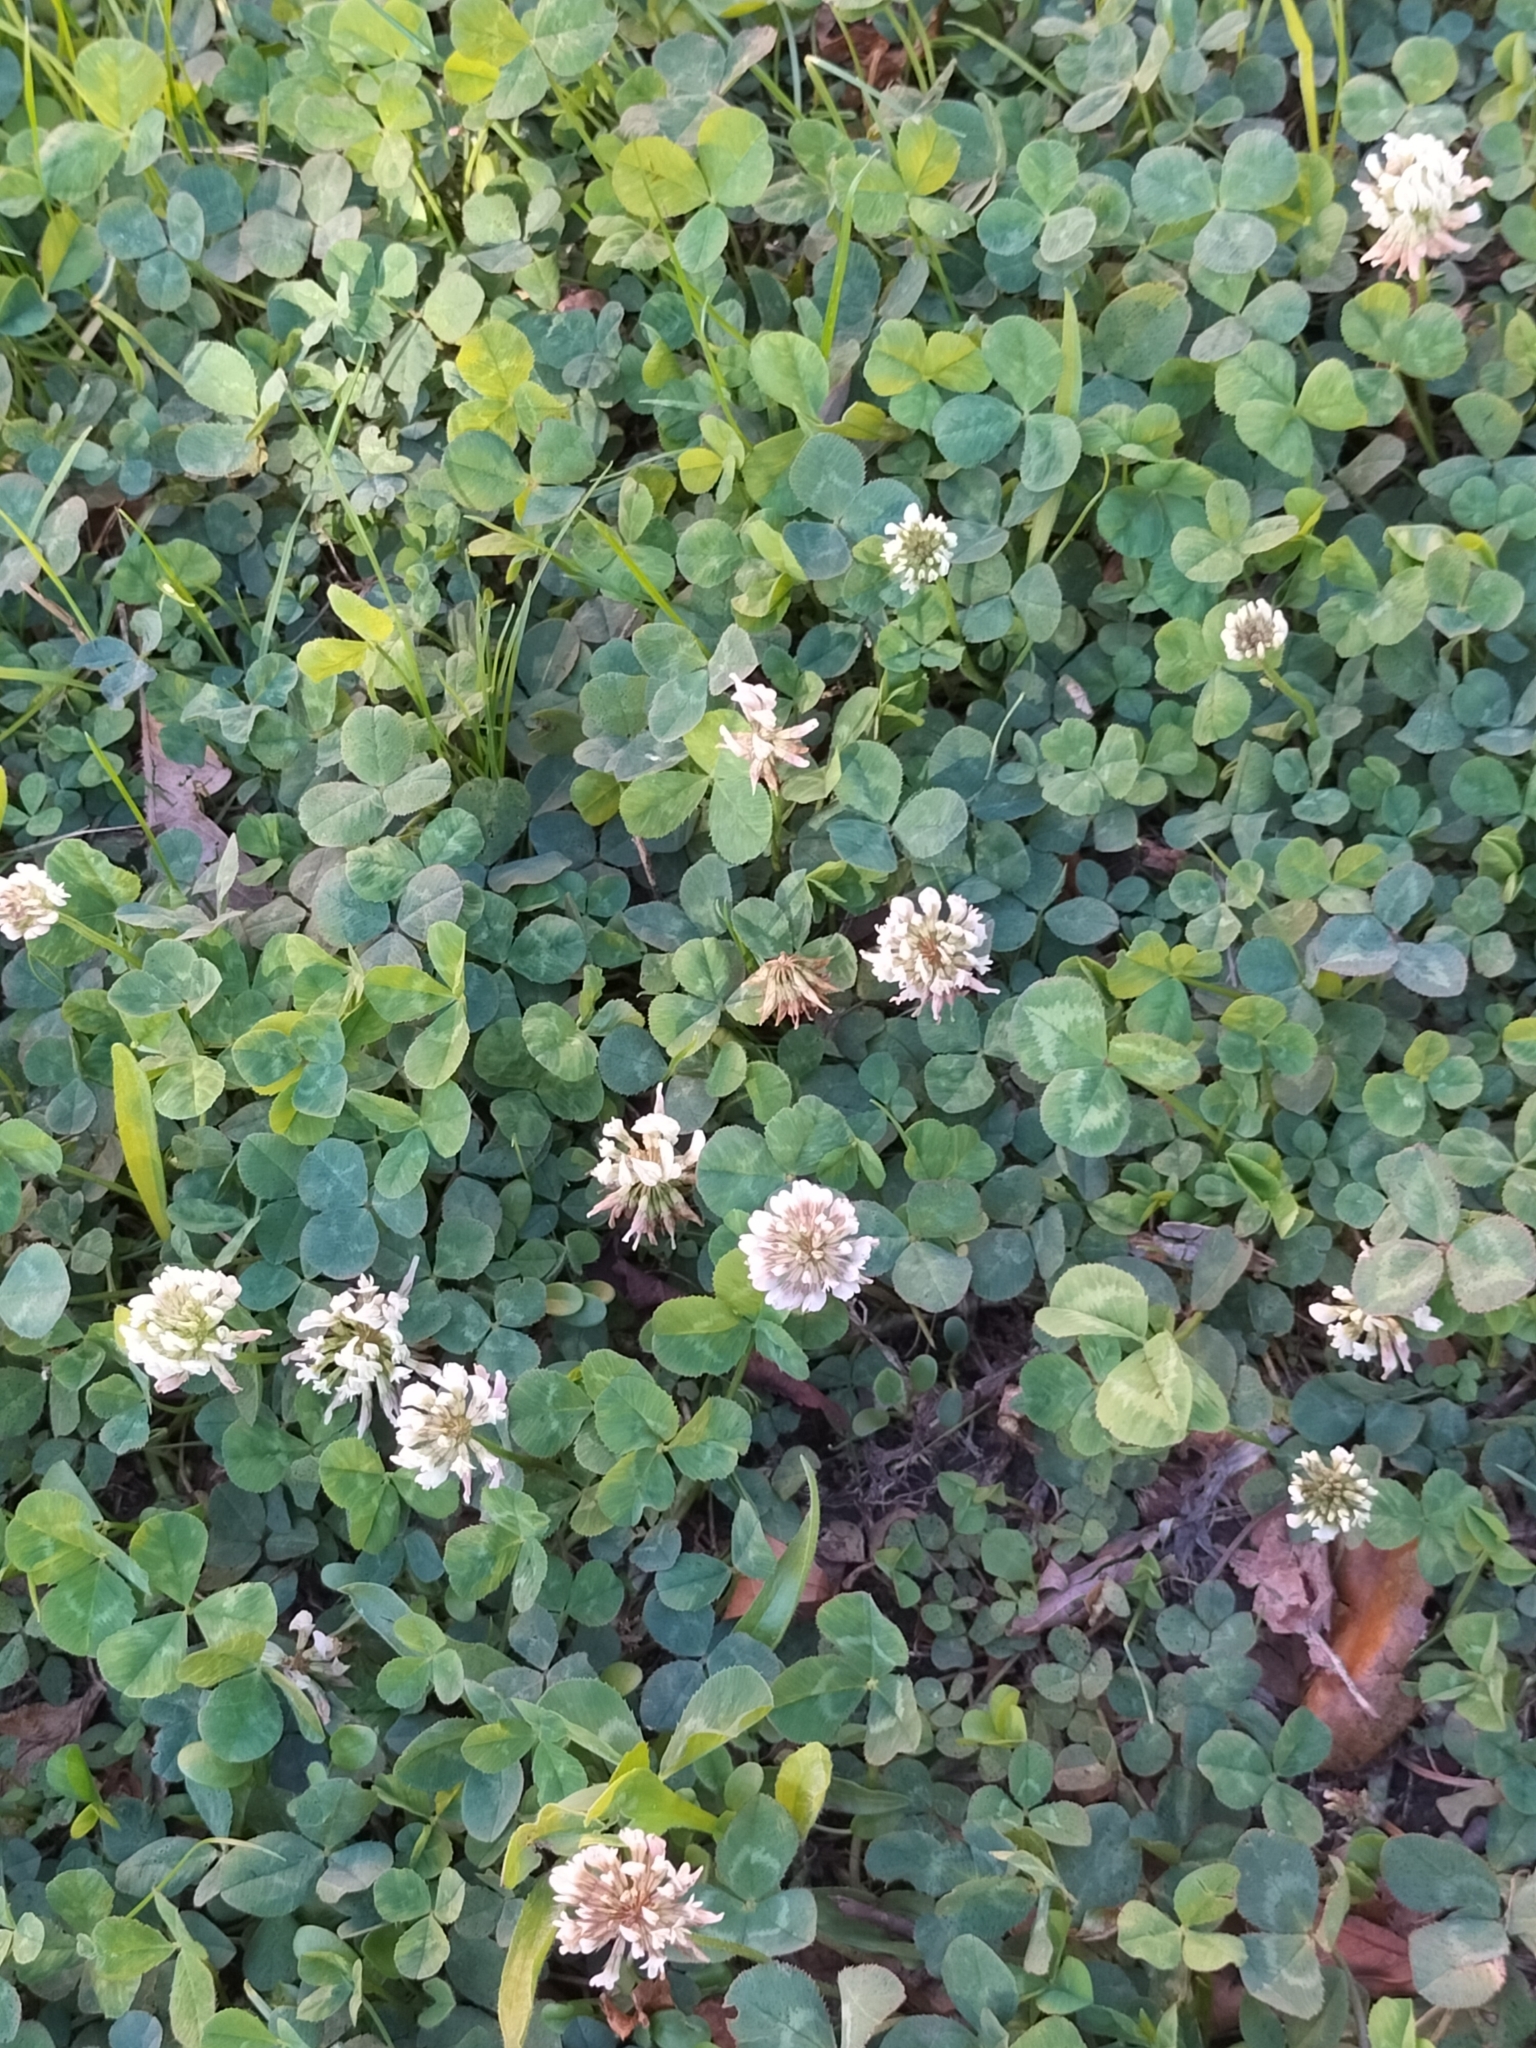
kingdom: Plantae
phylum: Tracheophyta
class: Magnoliopsida
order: Fabales
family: Fabaceae
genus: Trifolium
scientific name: Trifolium repens
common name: White clover
